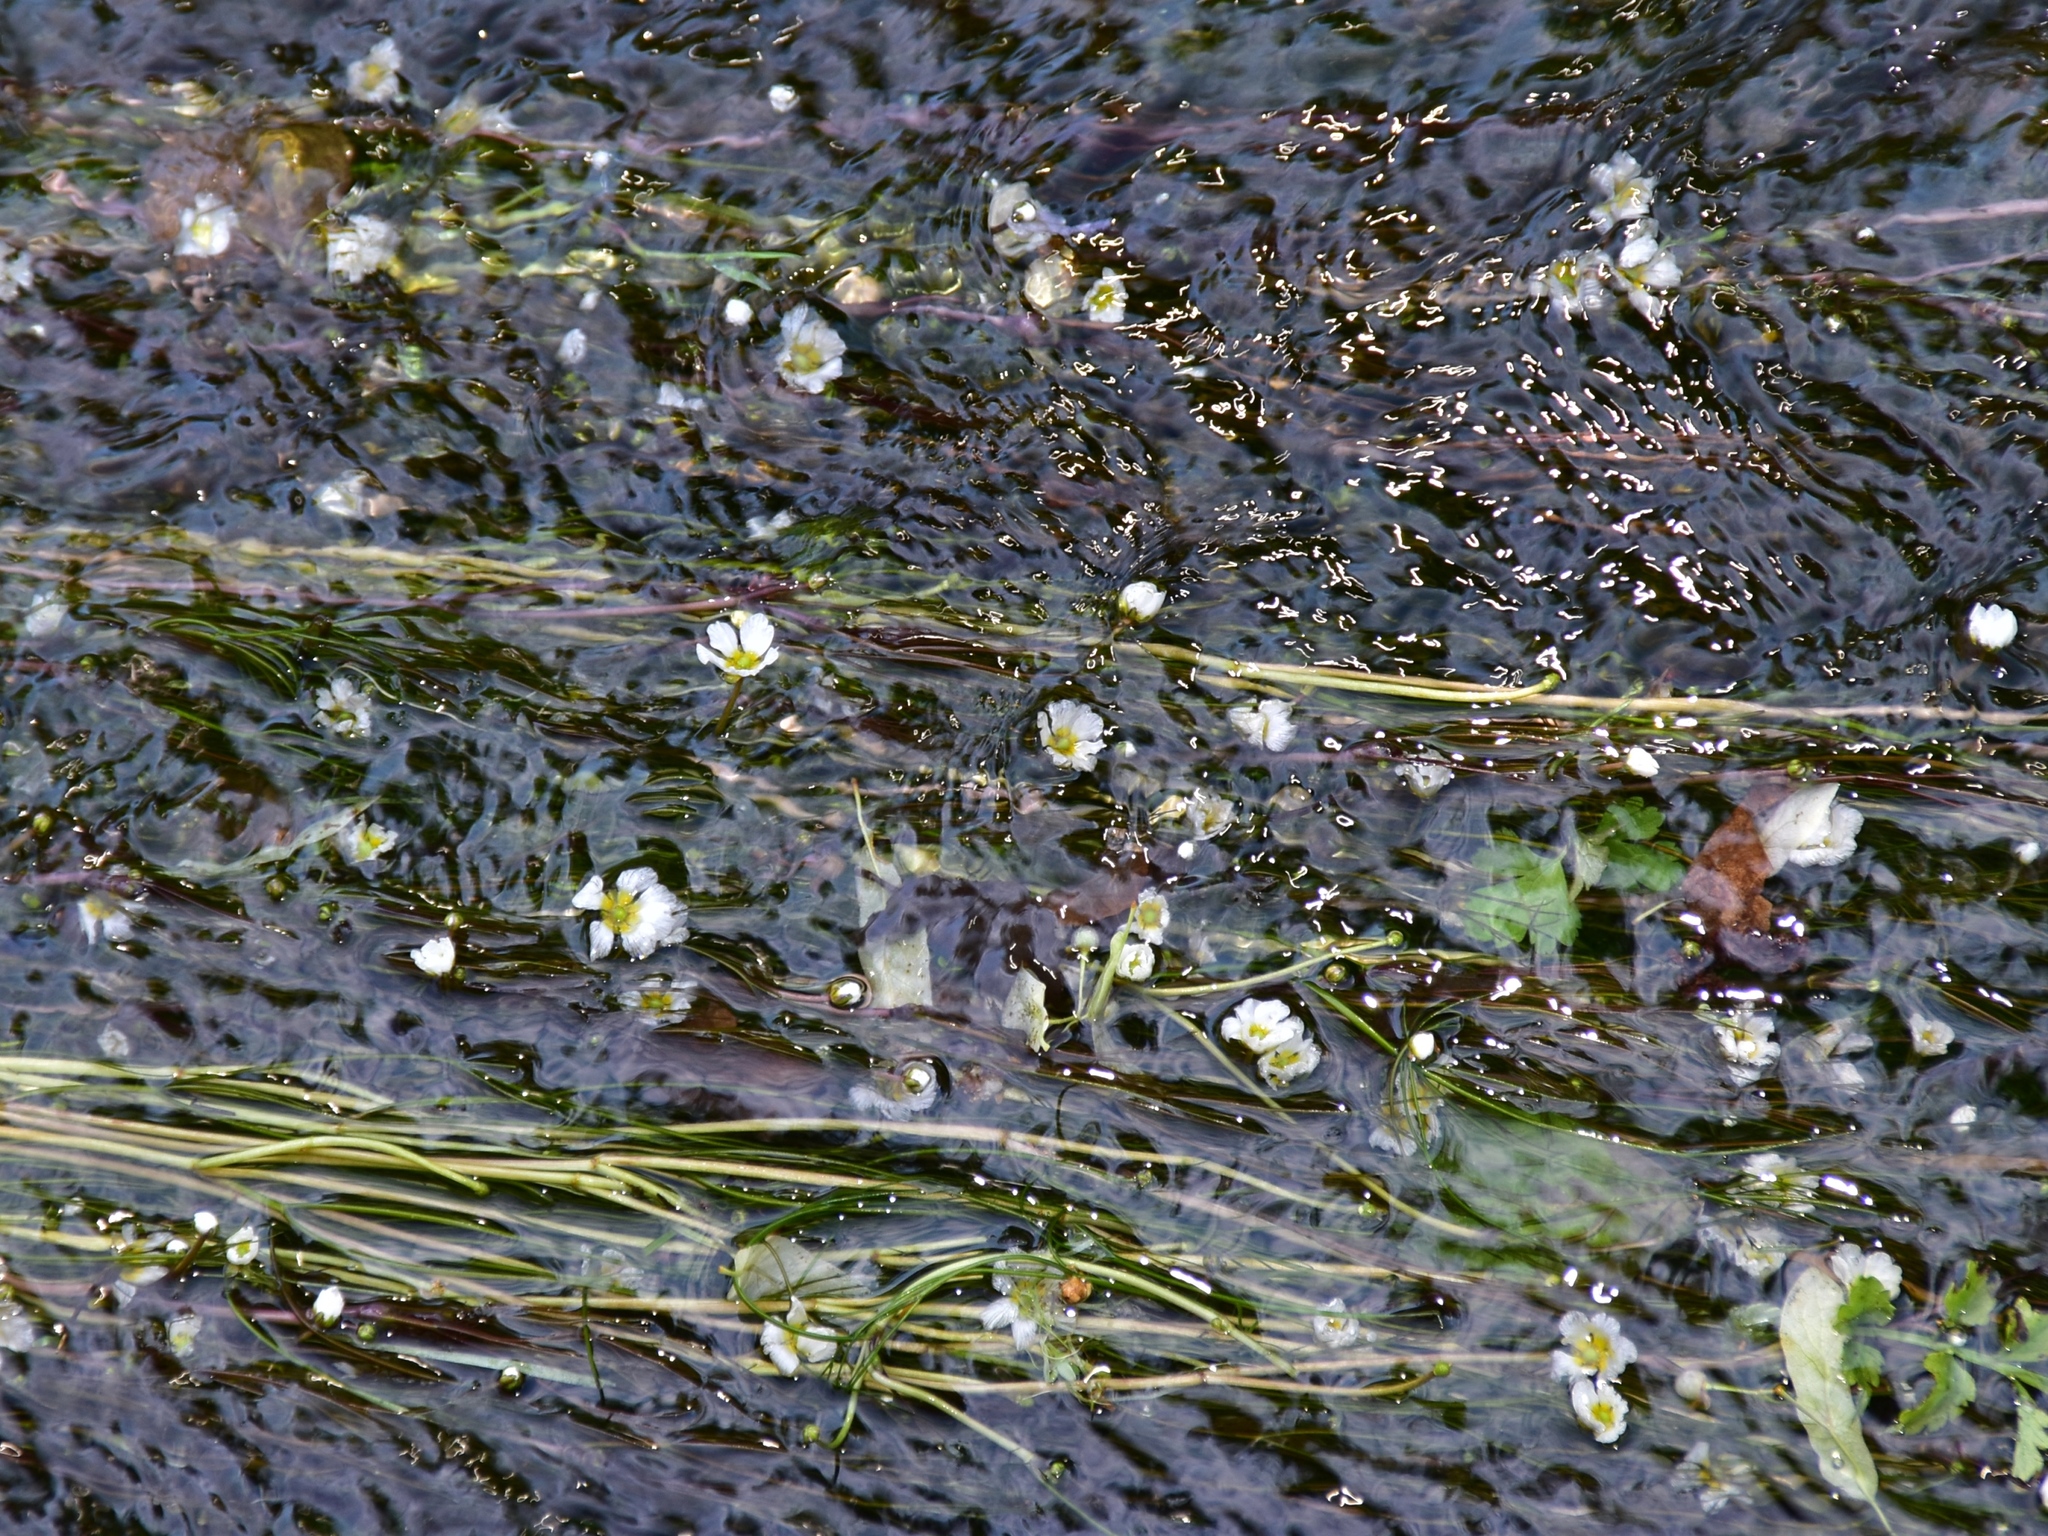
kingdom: Plantae
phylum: Tracheophyta
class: Magnoliopsida
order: Ranunculales
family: Ranunculaceae
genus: Ranunculus
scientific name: Ranunculus fluitans
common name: River water-crowfoot
